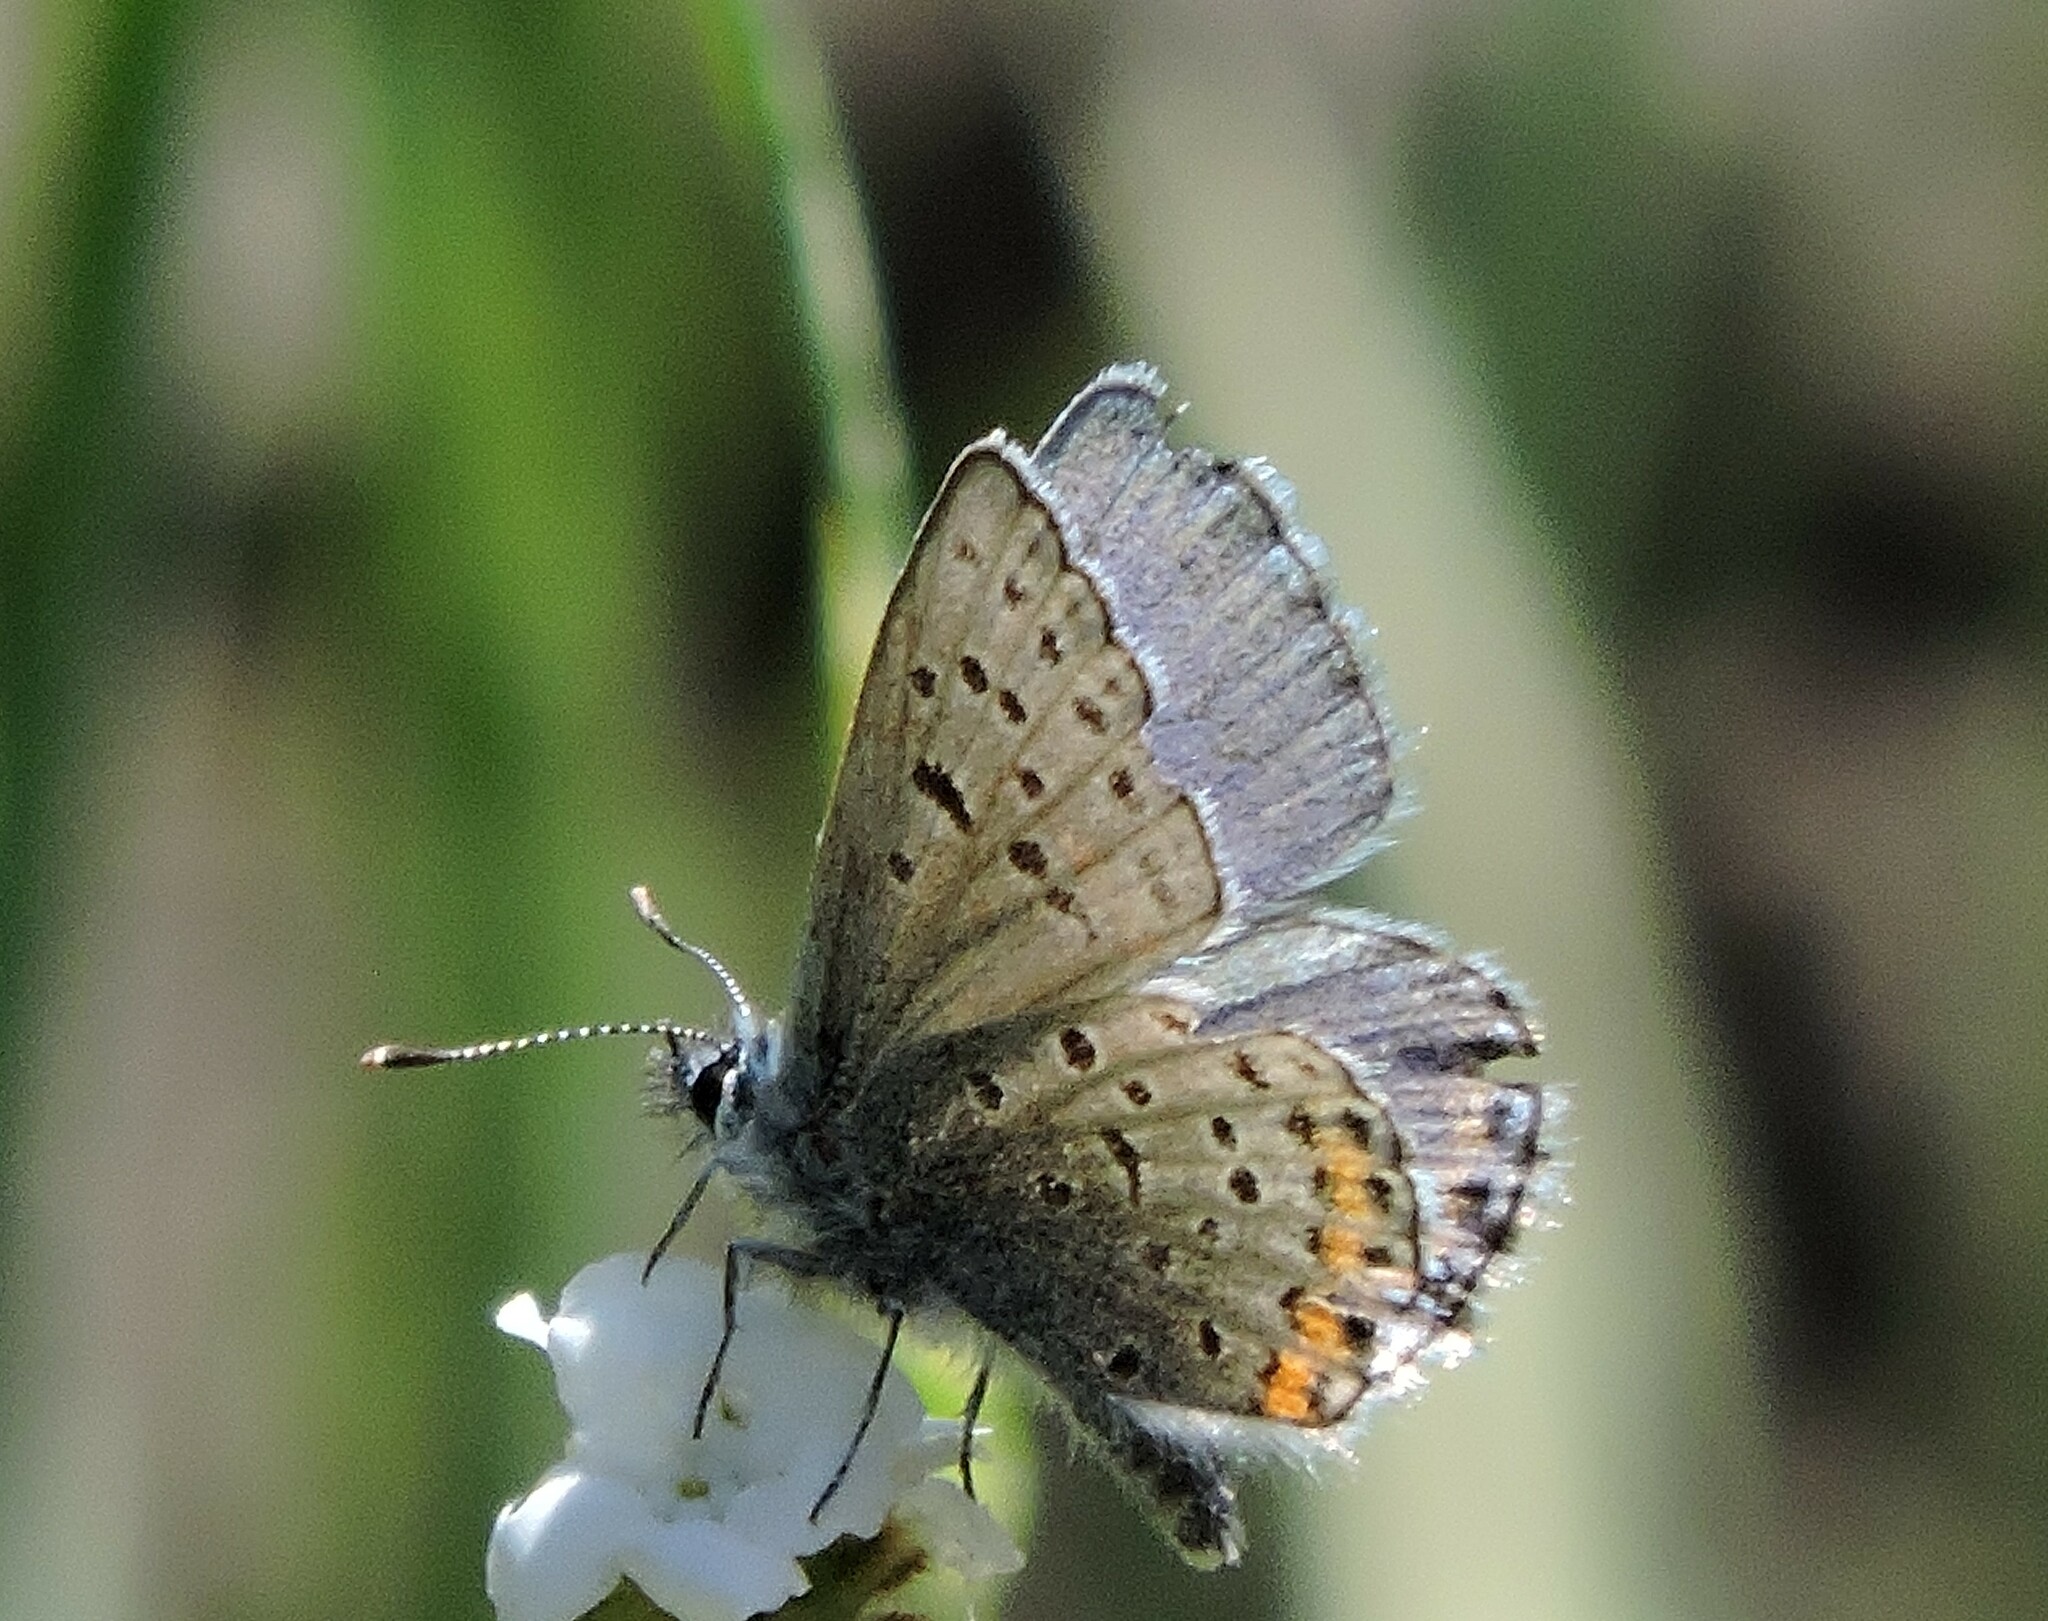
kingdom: Animalia
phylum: Arthropoda
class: Insecta
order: Lepidoptera
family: Lycaenidae
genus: Icaricia
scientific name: Icaricia acmon
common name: Acmon blue
